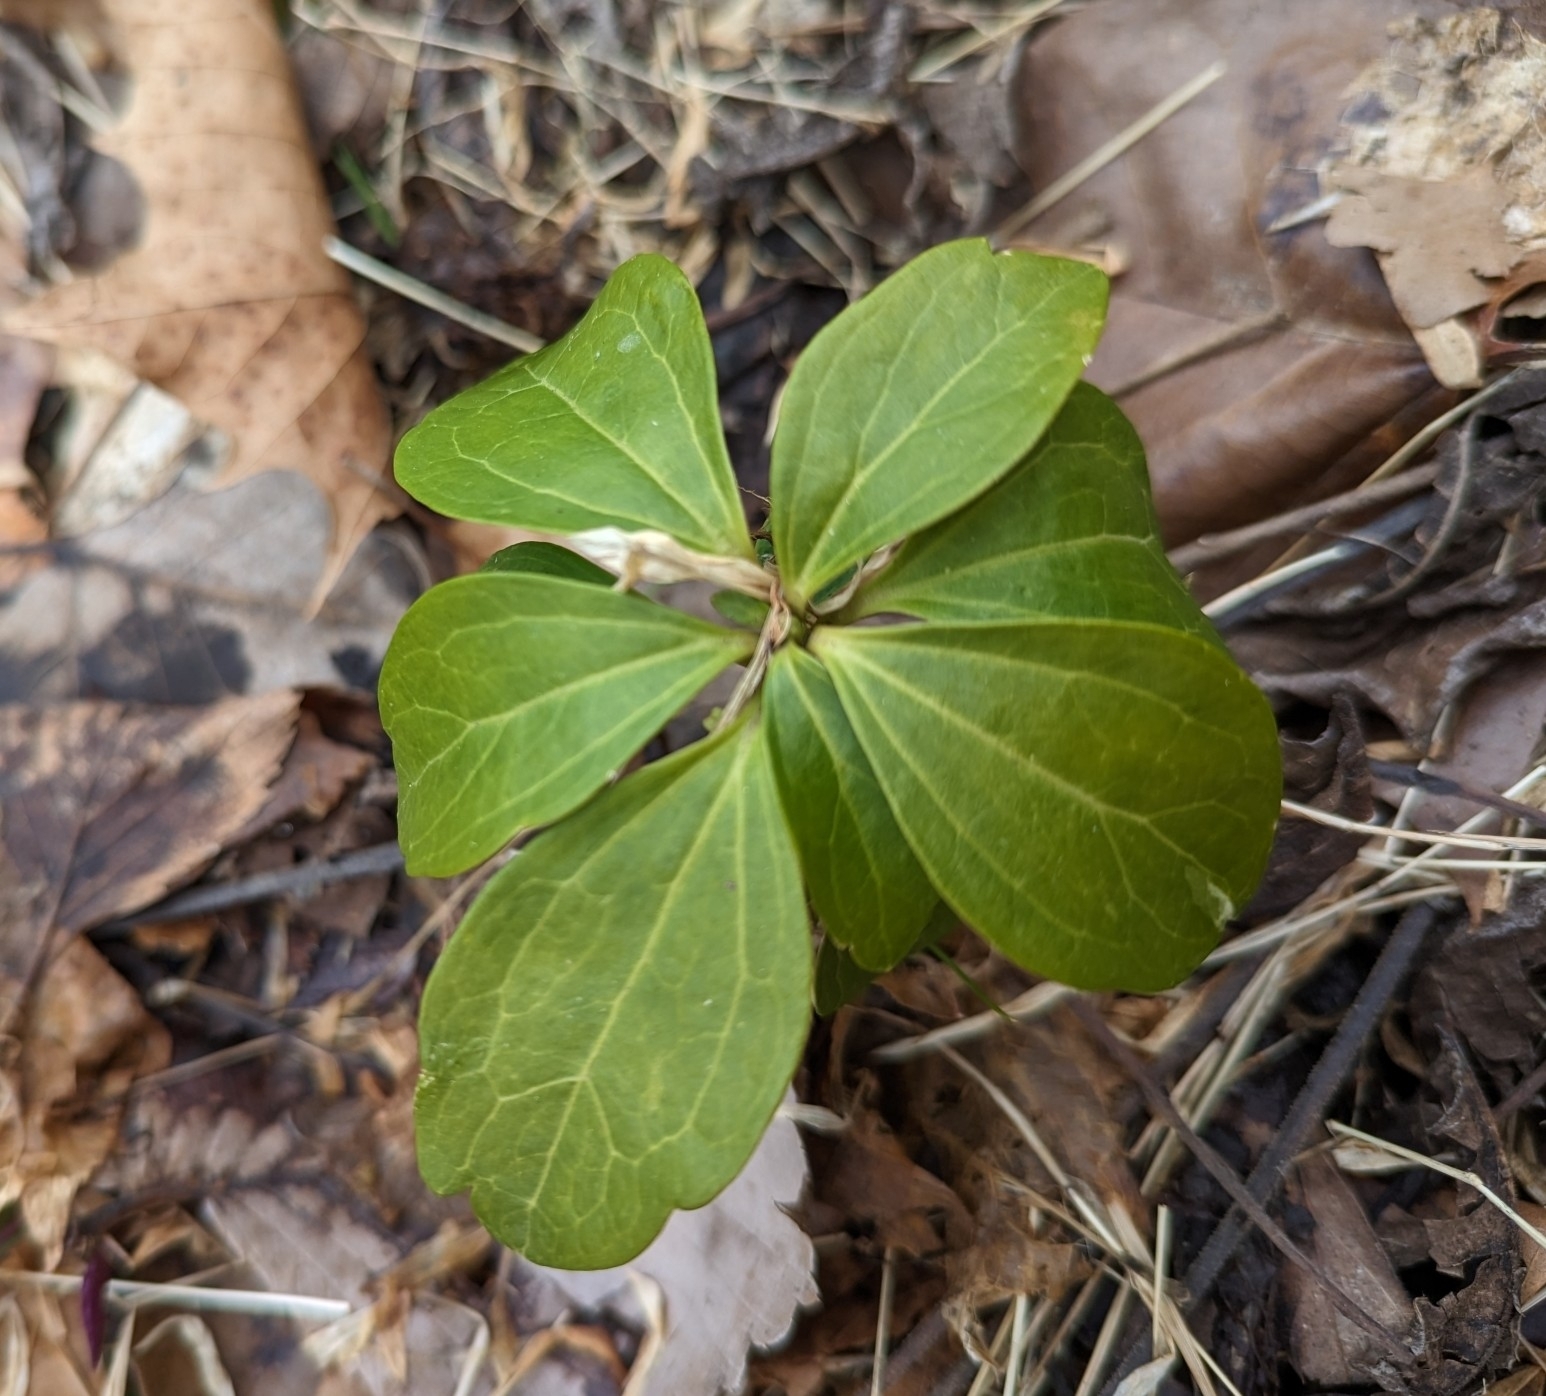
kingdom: Plantae
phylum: Tracheophyta
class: Magnoliopsida
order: Buxales
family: Buxaceae
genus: Pachysandra
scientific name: Pachysandra terminalis
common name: Japanese pachysandra
